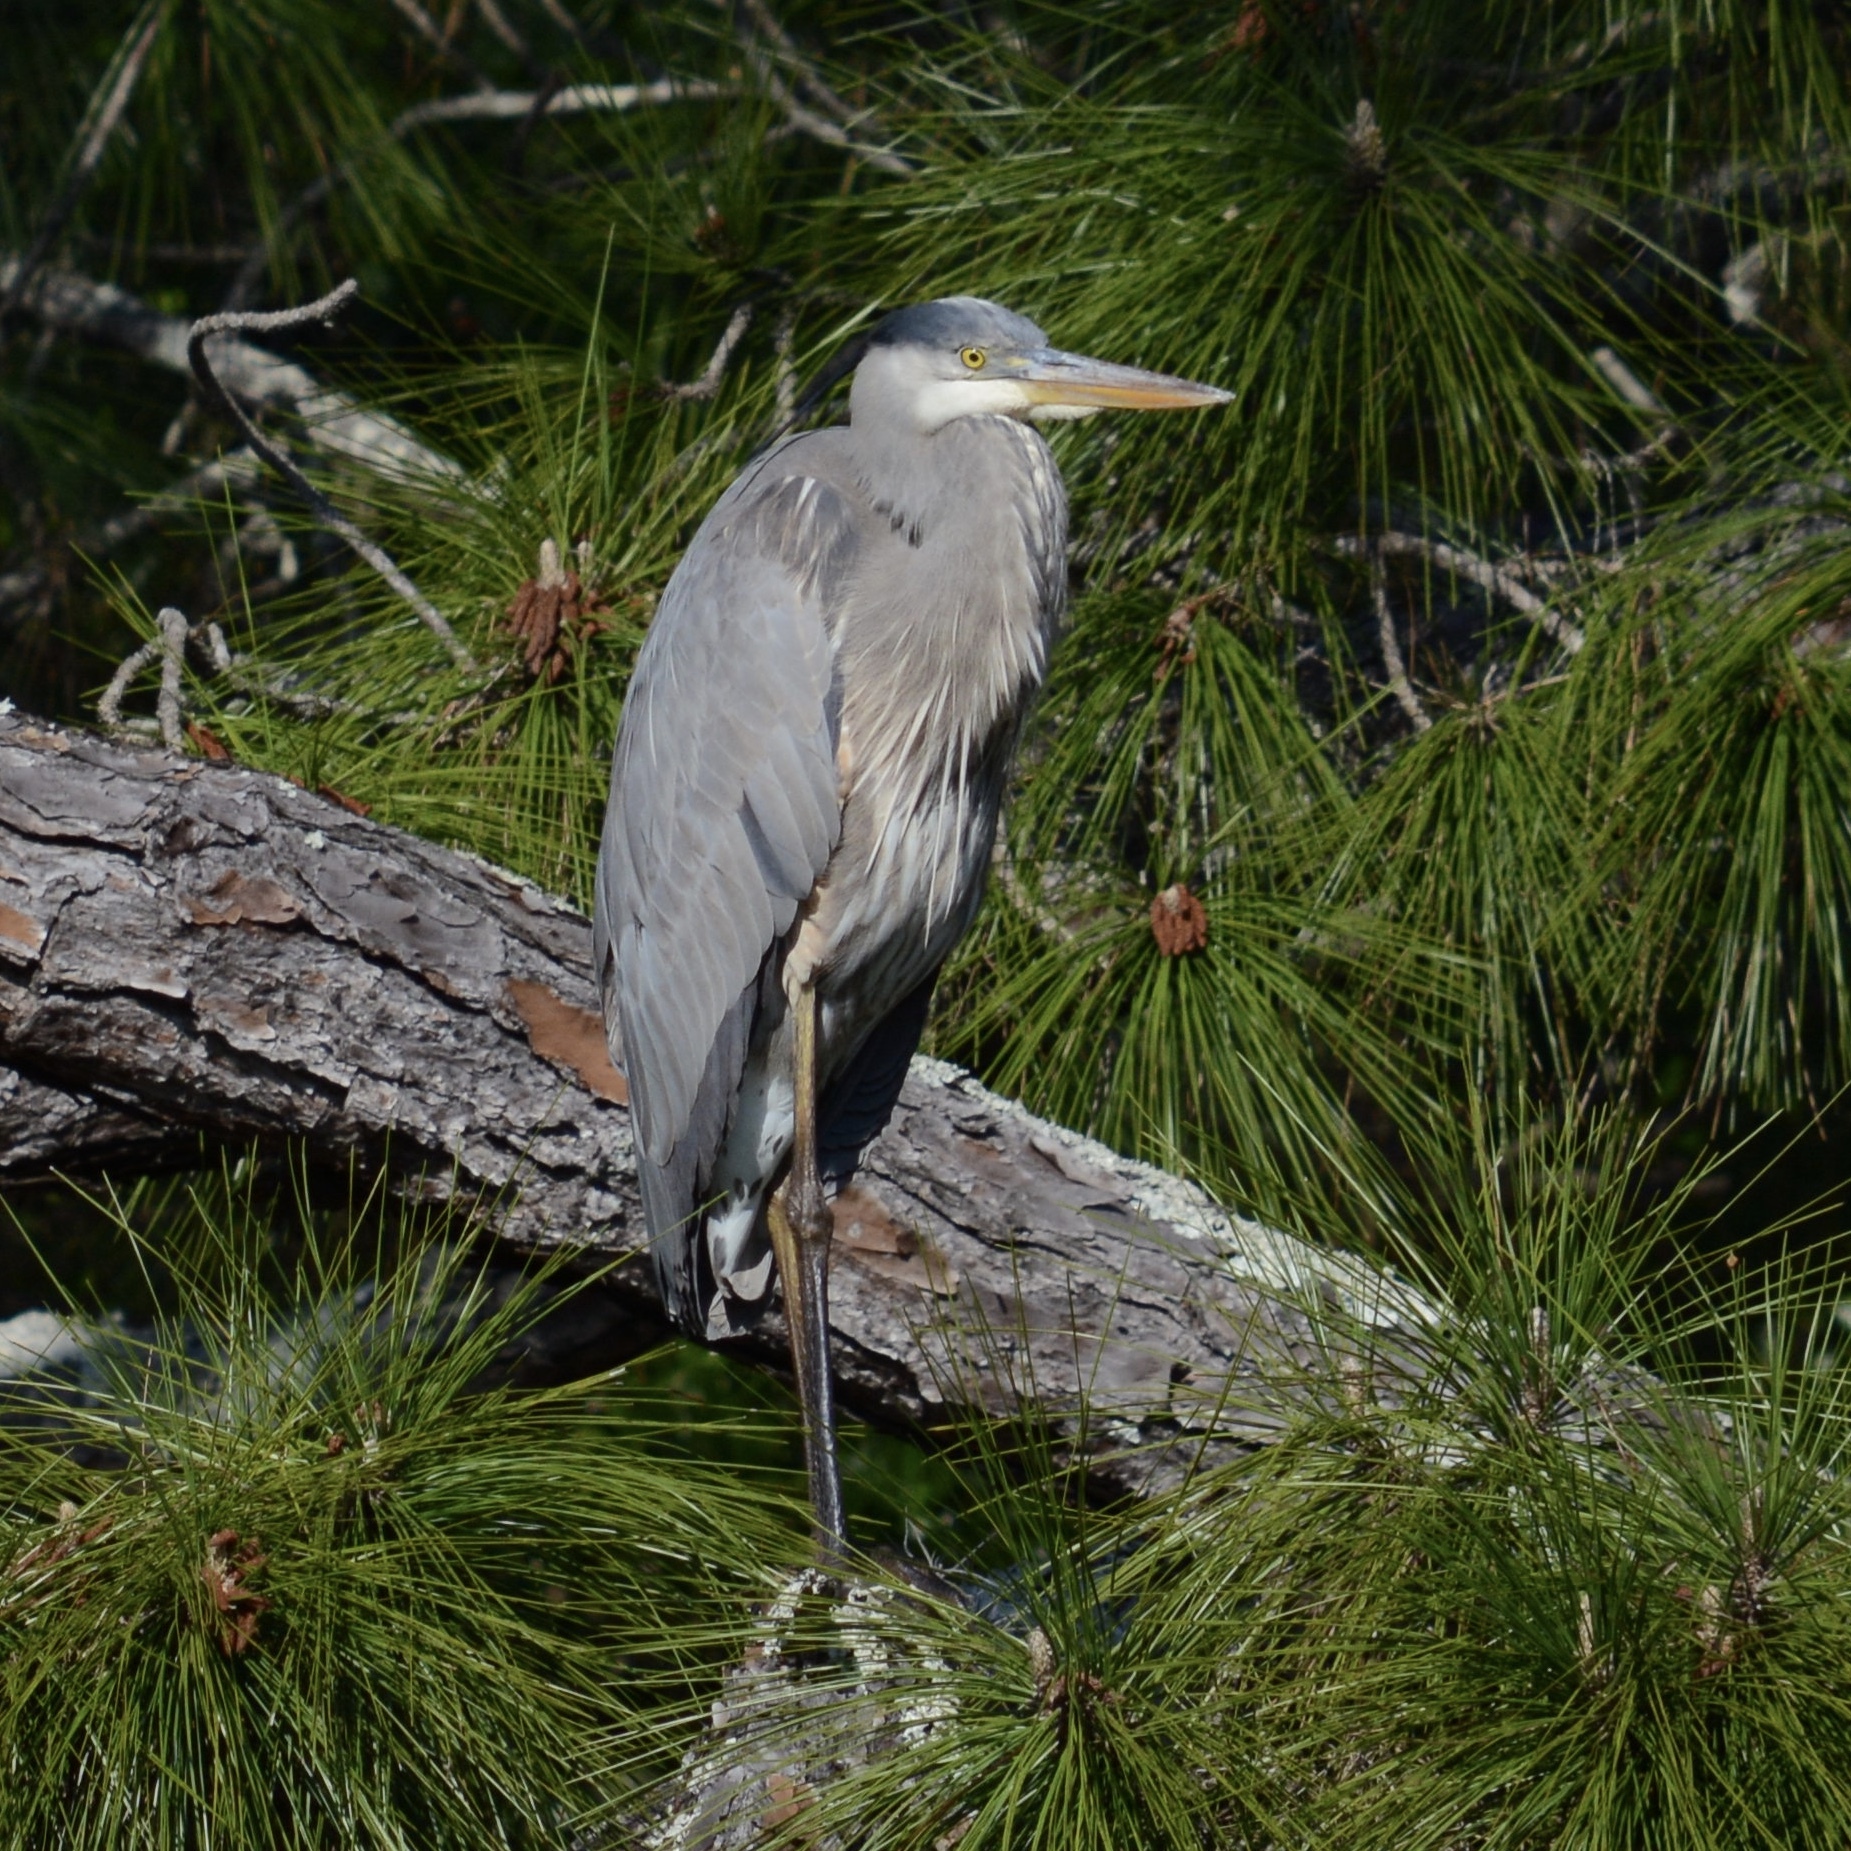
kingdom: Animalia
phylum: Chordata
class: Aves
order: Pelecaniformes
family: Ardeidae
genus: Ardea
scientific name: Ardea herodias
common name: Great blue heron
